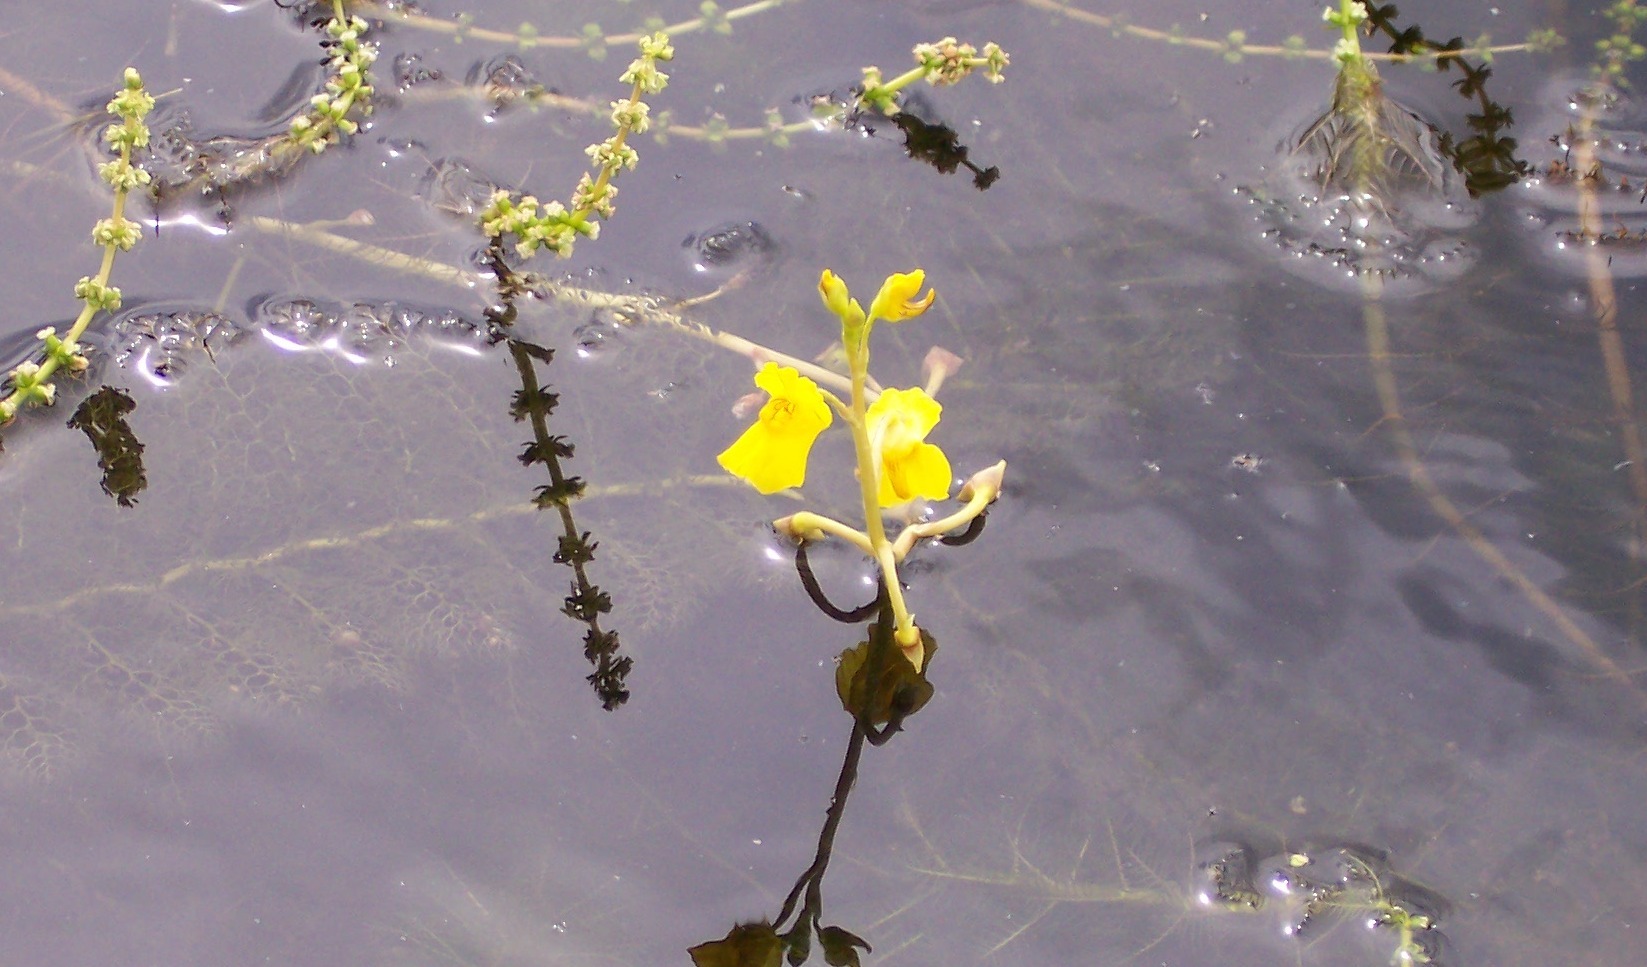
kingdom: Plantae
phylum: Tracheophyta
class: Magnoliopsida
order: Lamiales
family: Lentibulariaceae
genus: Utricularia
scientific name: Utricularia macrorhiza
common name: Common bladderwort
